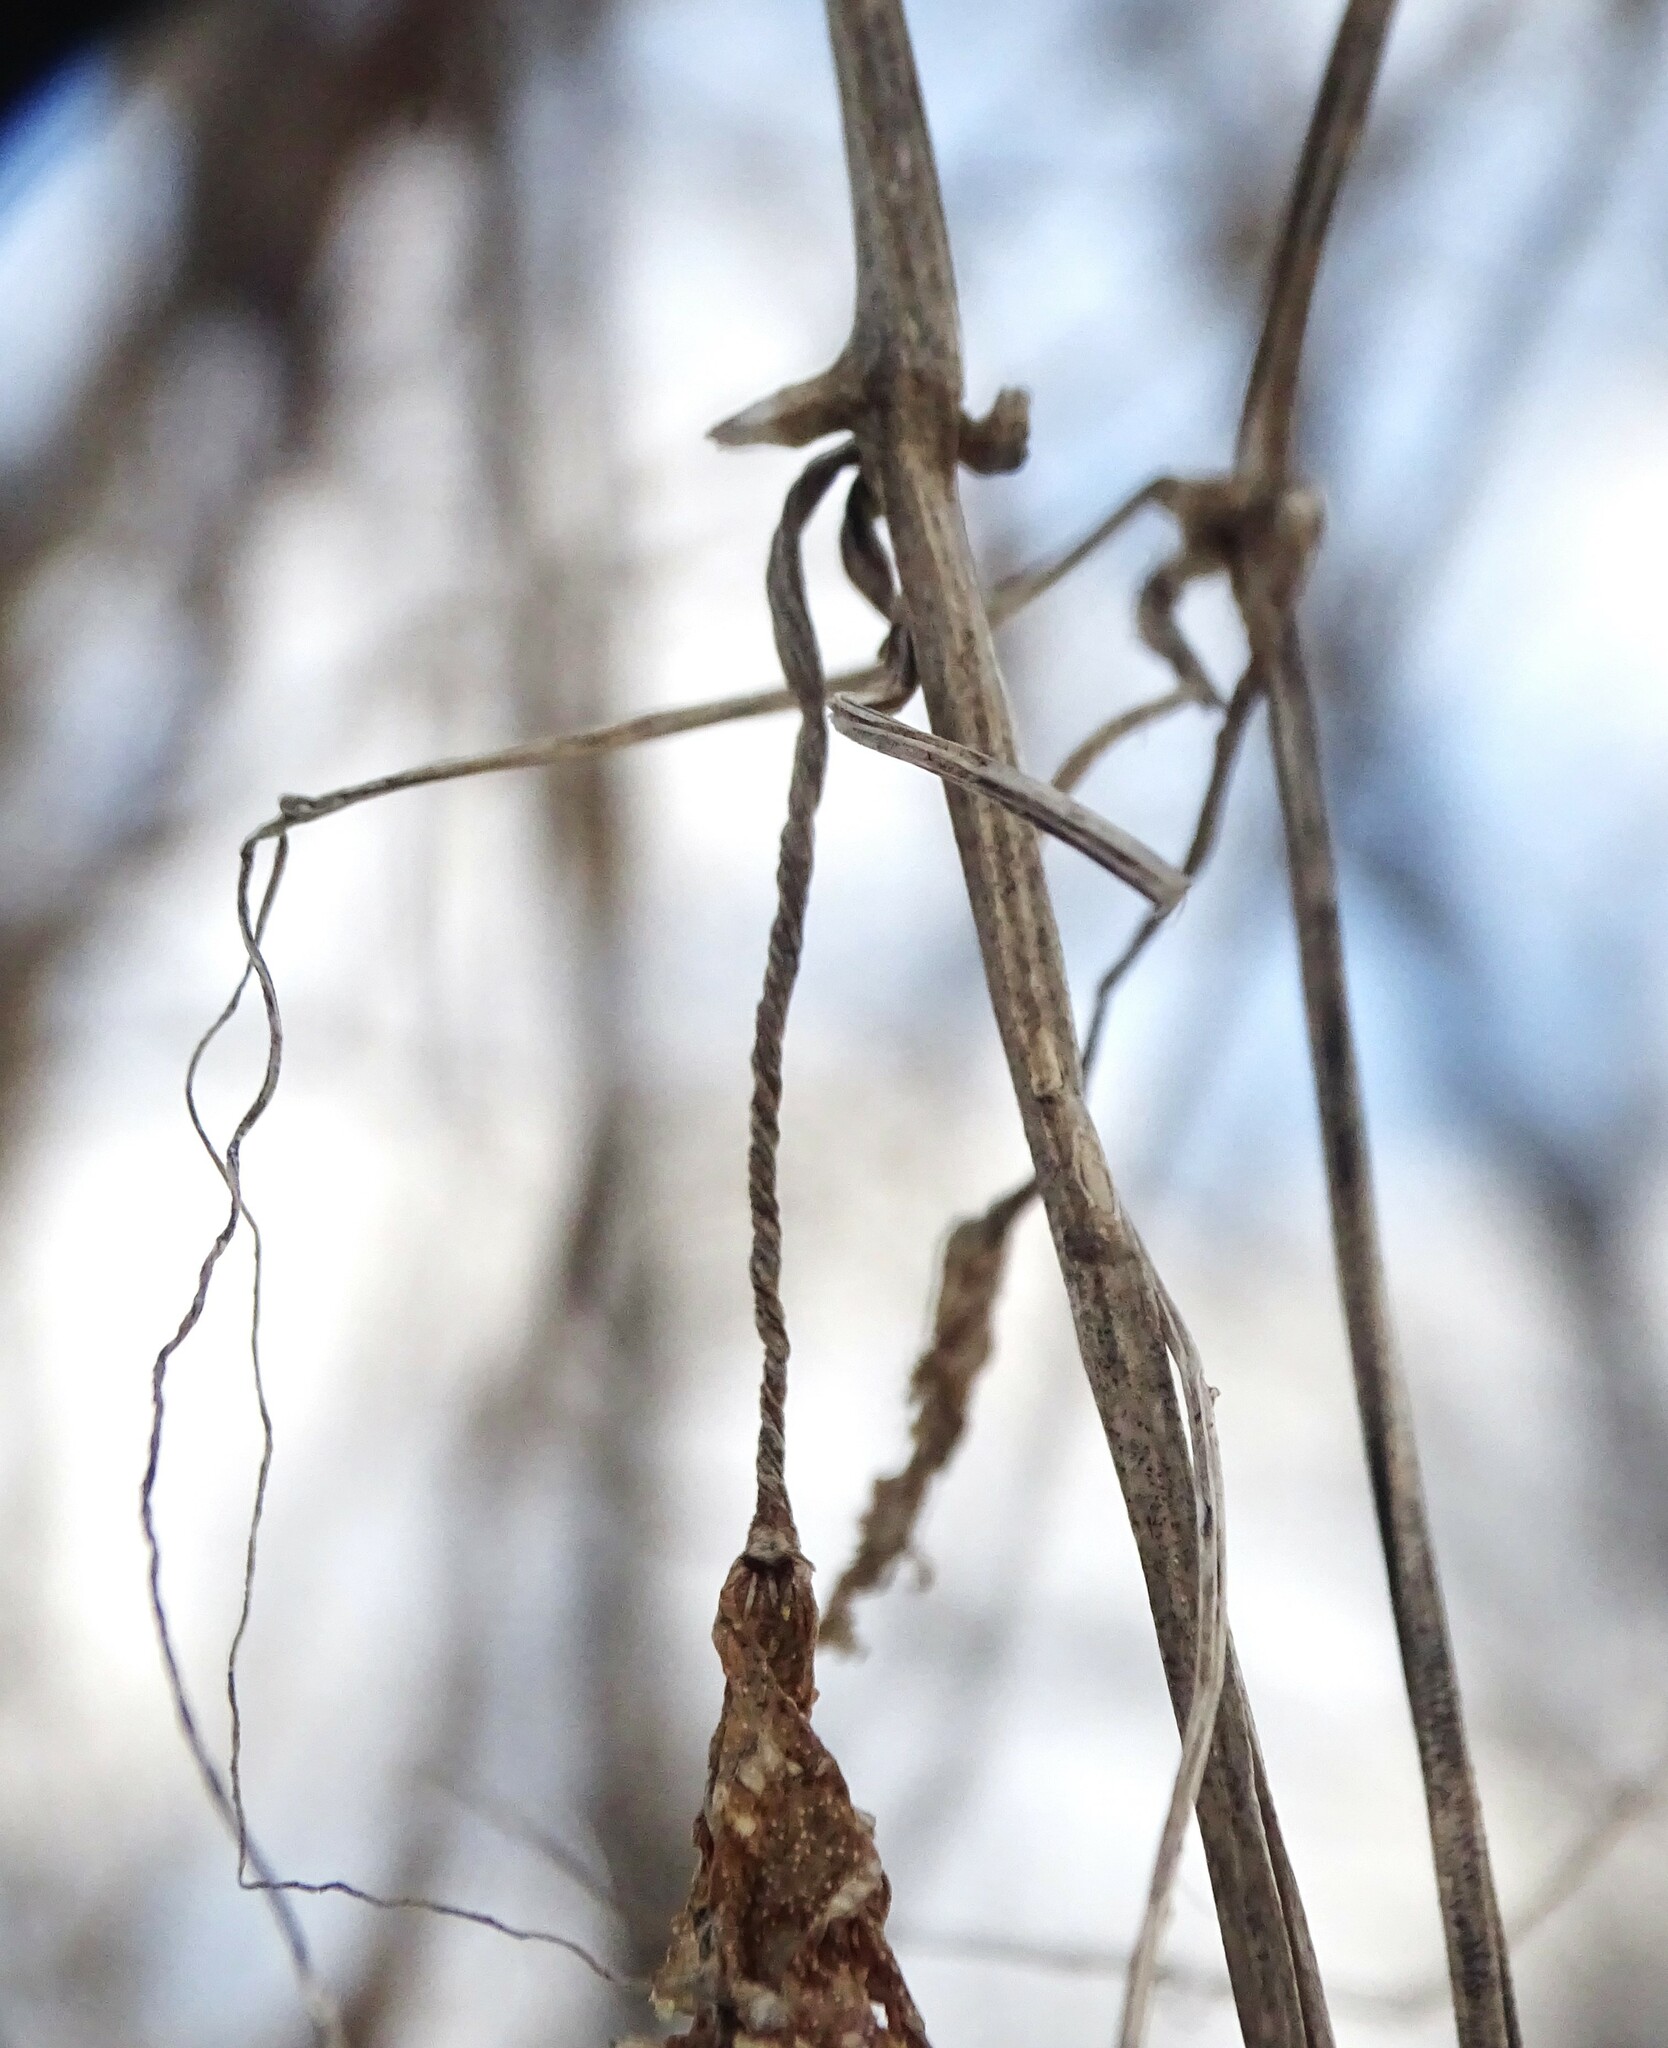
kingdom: Plantae
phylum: Tracheophyta
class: Magnoliopsida
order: Cucurbitales
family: Cucurbitaceae
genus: Echinocystis
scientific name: Echinocystis lobata
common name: Wild cucumber
